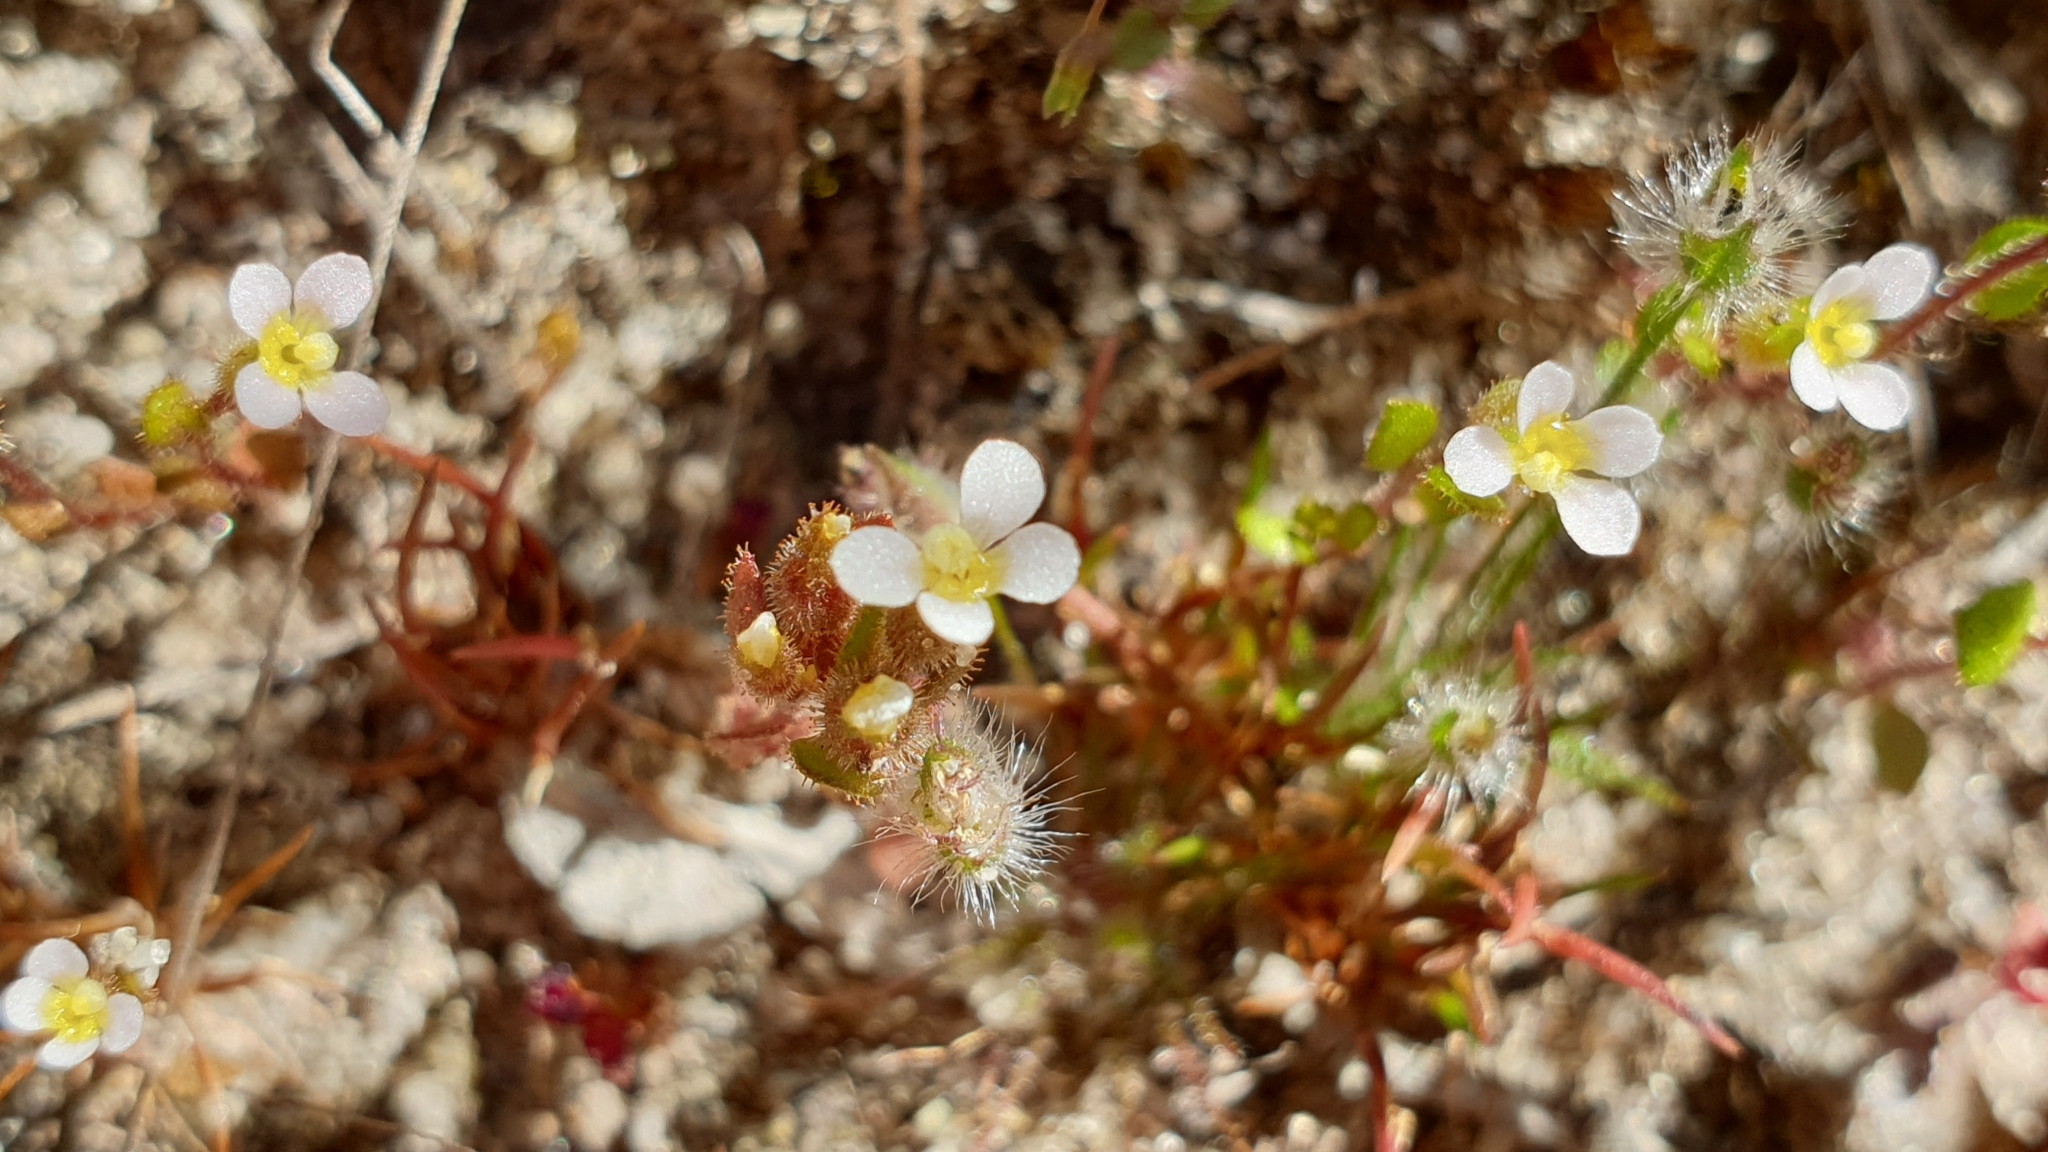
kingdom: Plantae
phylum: Tracheophyta
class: Magnoliopsida
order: Asterales
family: Stylidiaceae
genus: Levenhookia
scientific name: Levenhookia dubia
